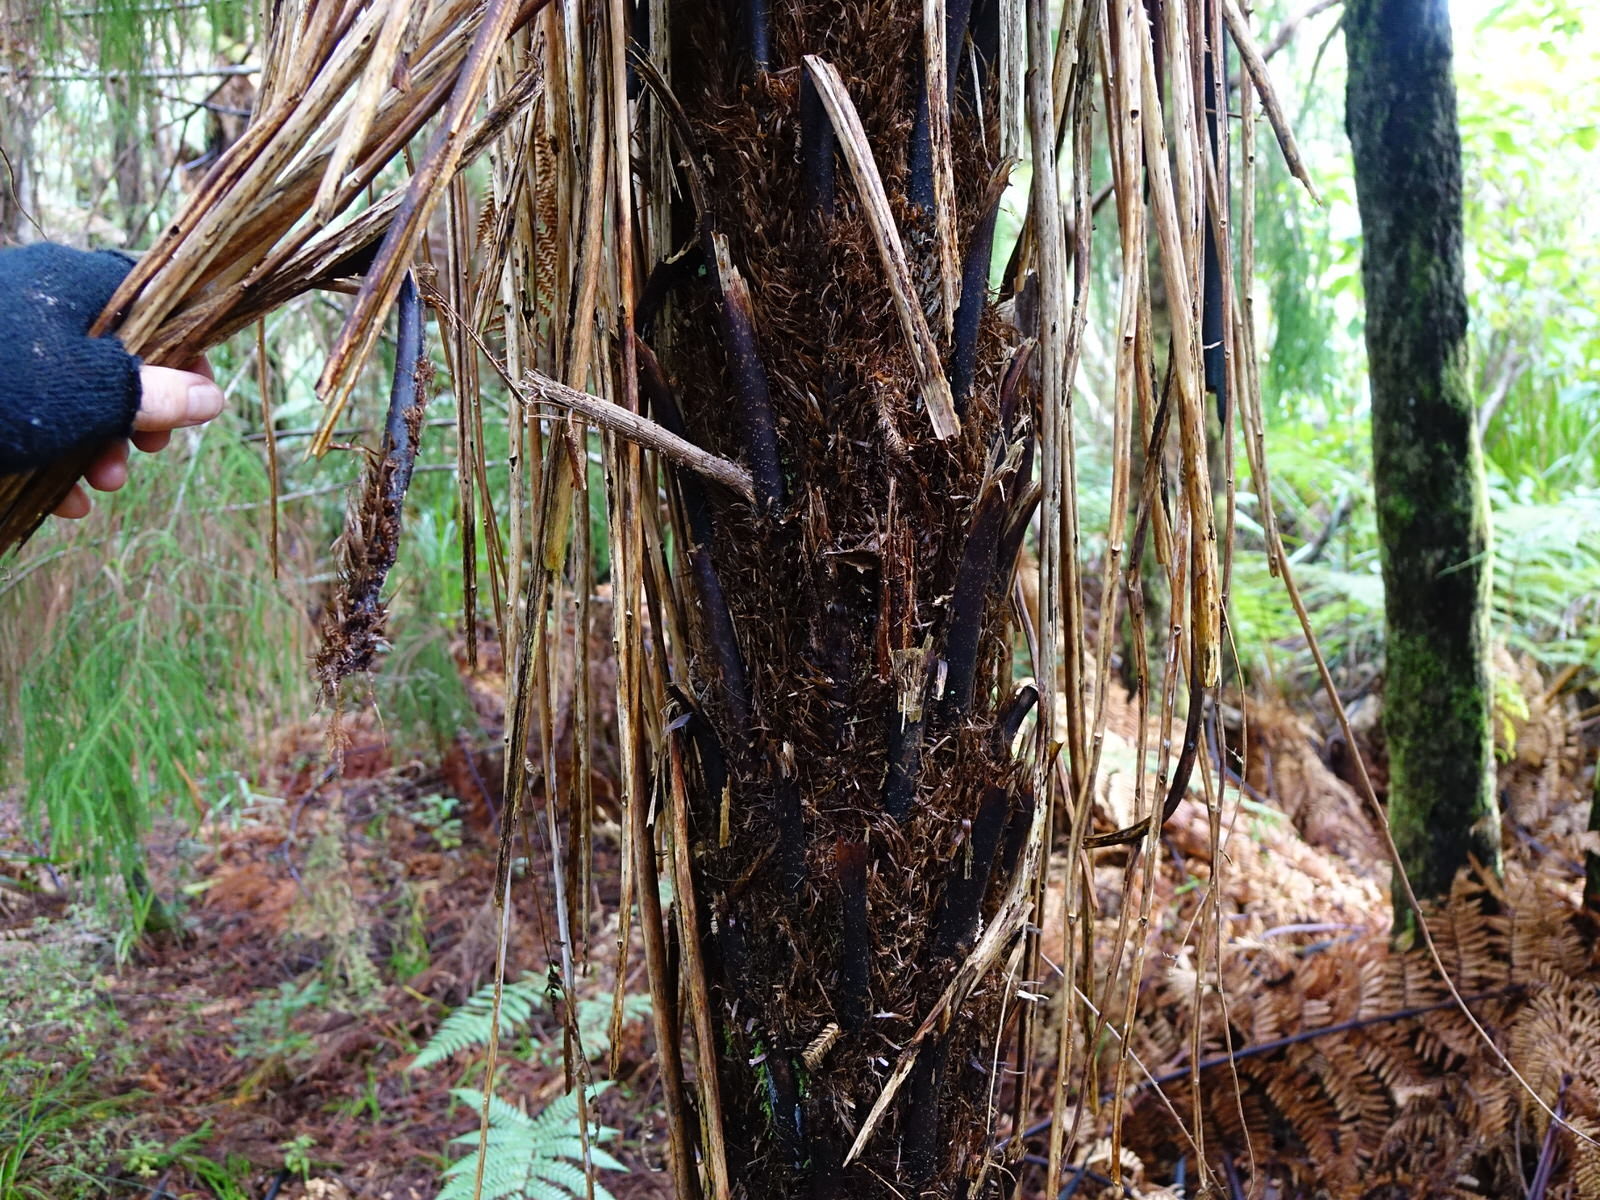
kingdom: Plantae
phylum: Tracheophyta
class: Polypodiopsida
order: Cyatheales
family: Cyatheaceae
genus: Alsophila
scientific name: Alsophila smithii
